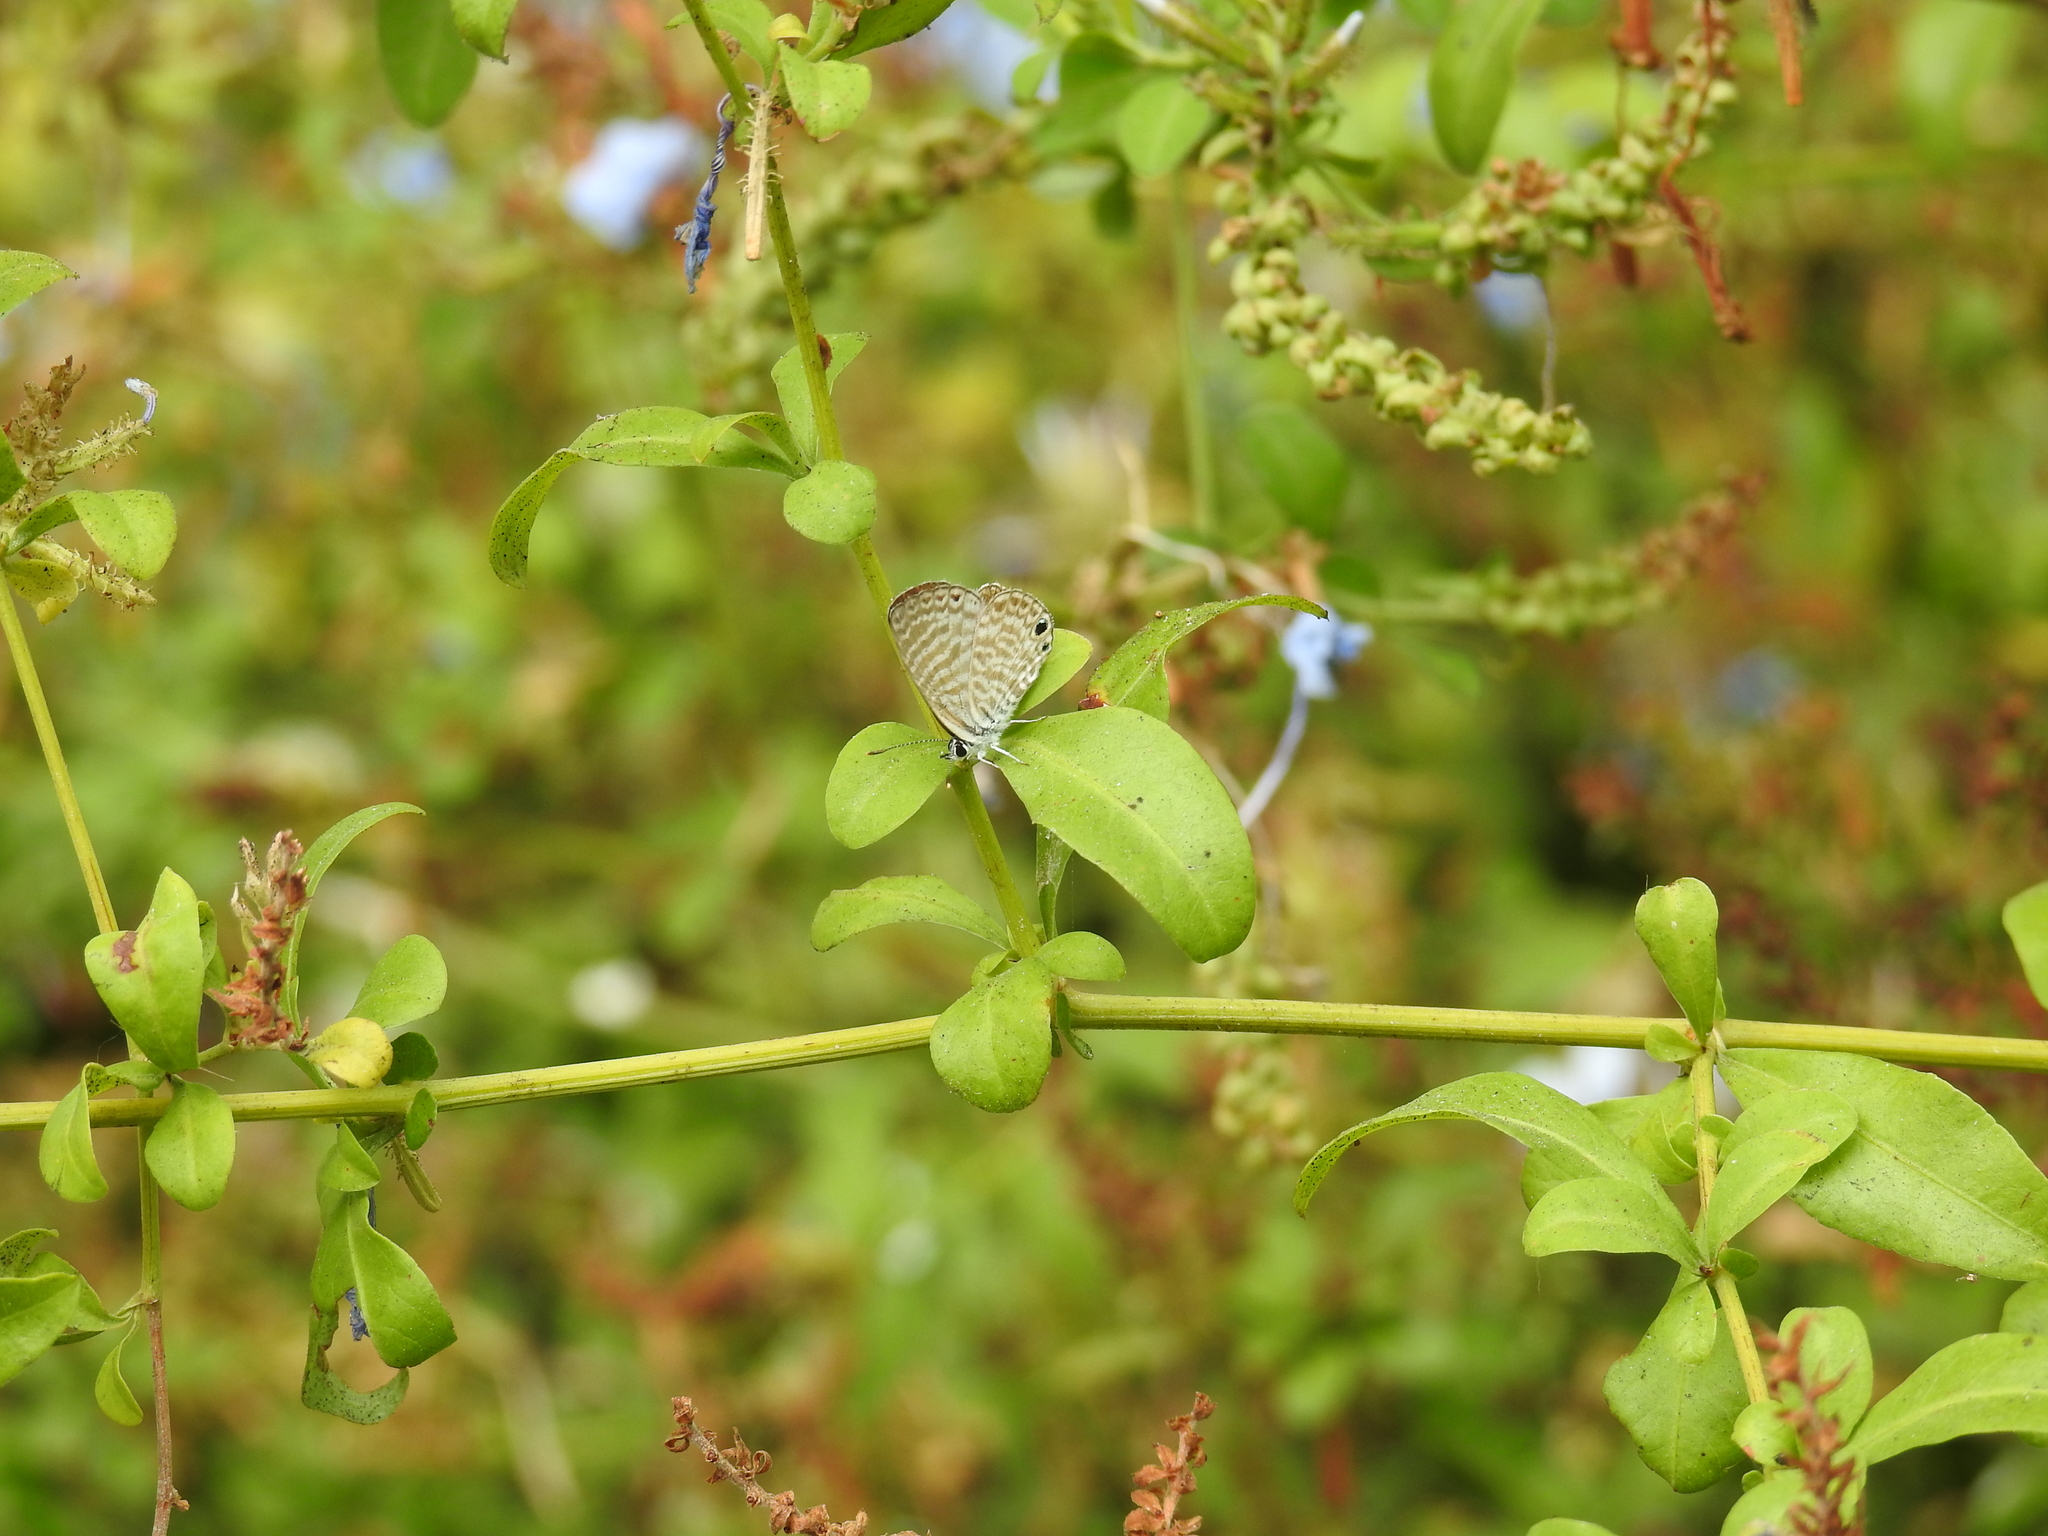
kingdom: Animalia
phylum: Arthropoda
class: Insecta
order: Lepidoptera
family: Lycaenidae
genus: Leptotes
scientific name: Leptotes marina
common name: Marine blue
